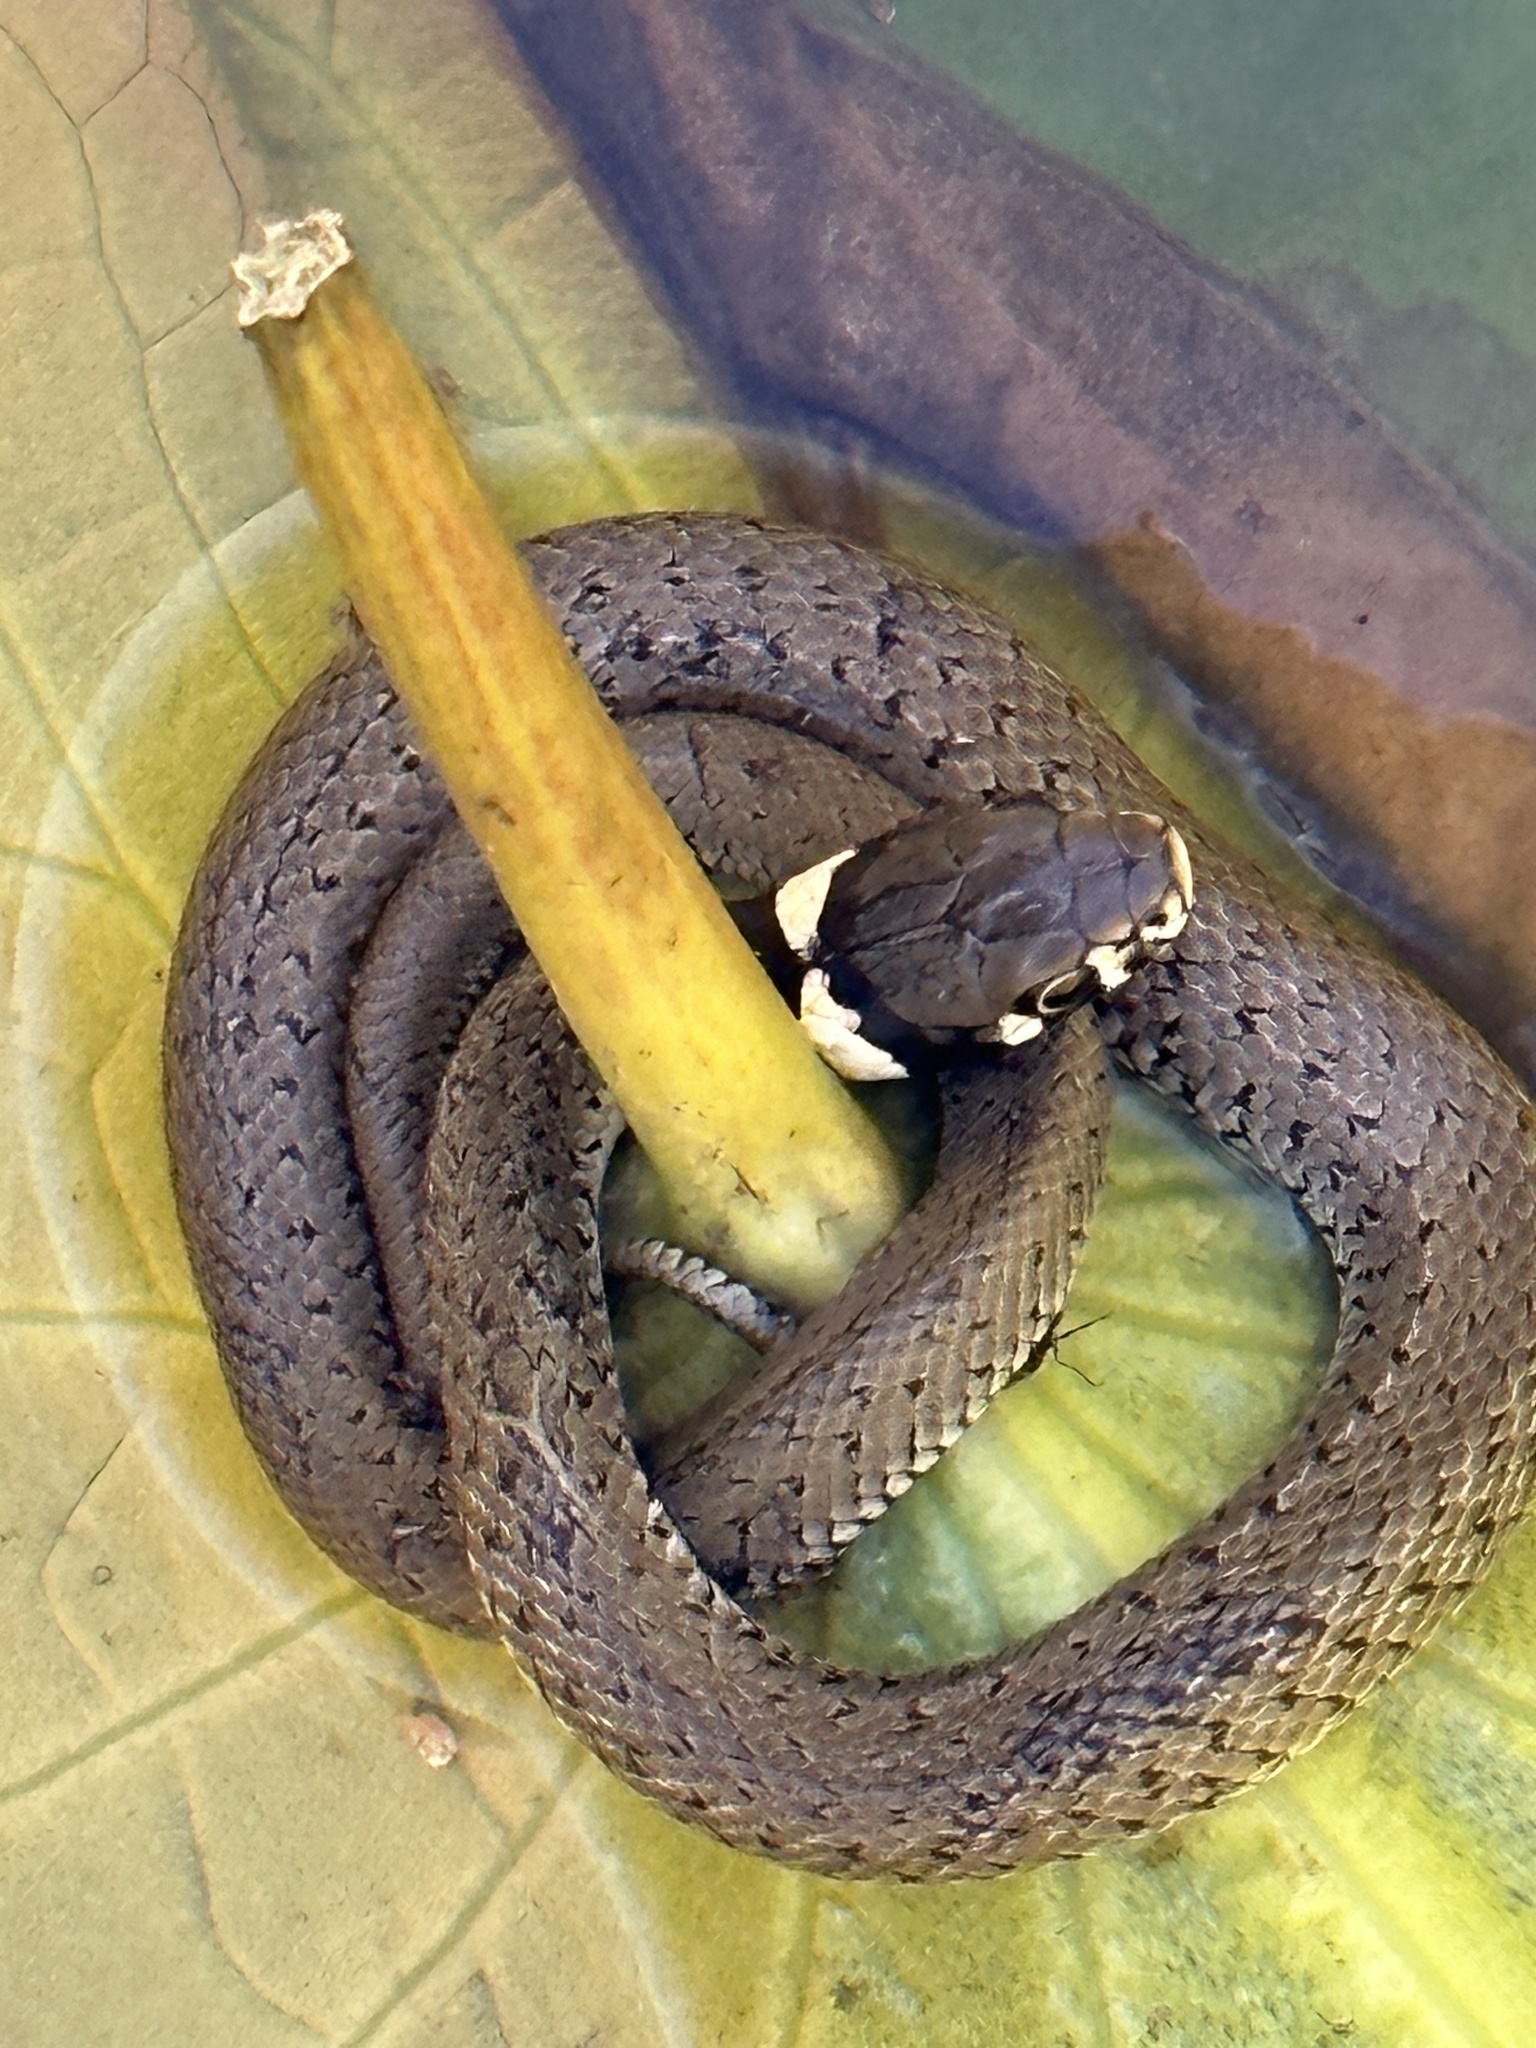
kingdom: Animalia
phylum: Chordata
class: Squamata
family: Colubridae
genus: Natrix
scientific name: Natrix natrix
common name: Grass snake
